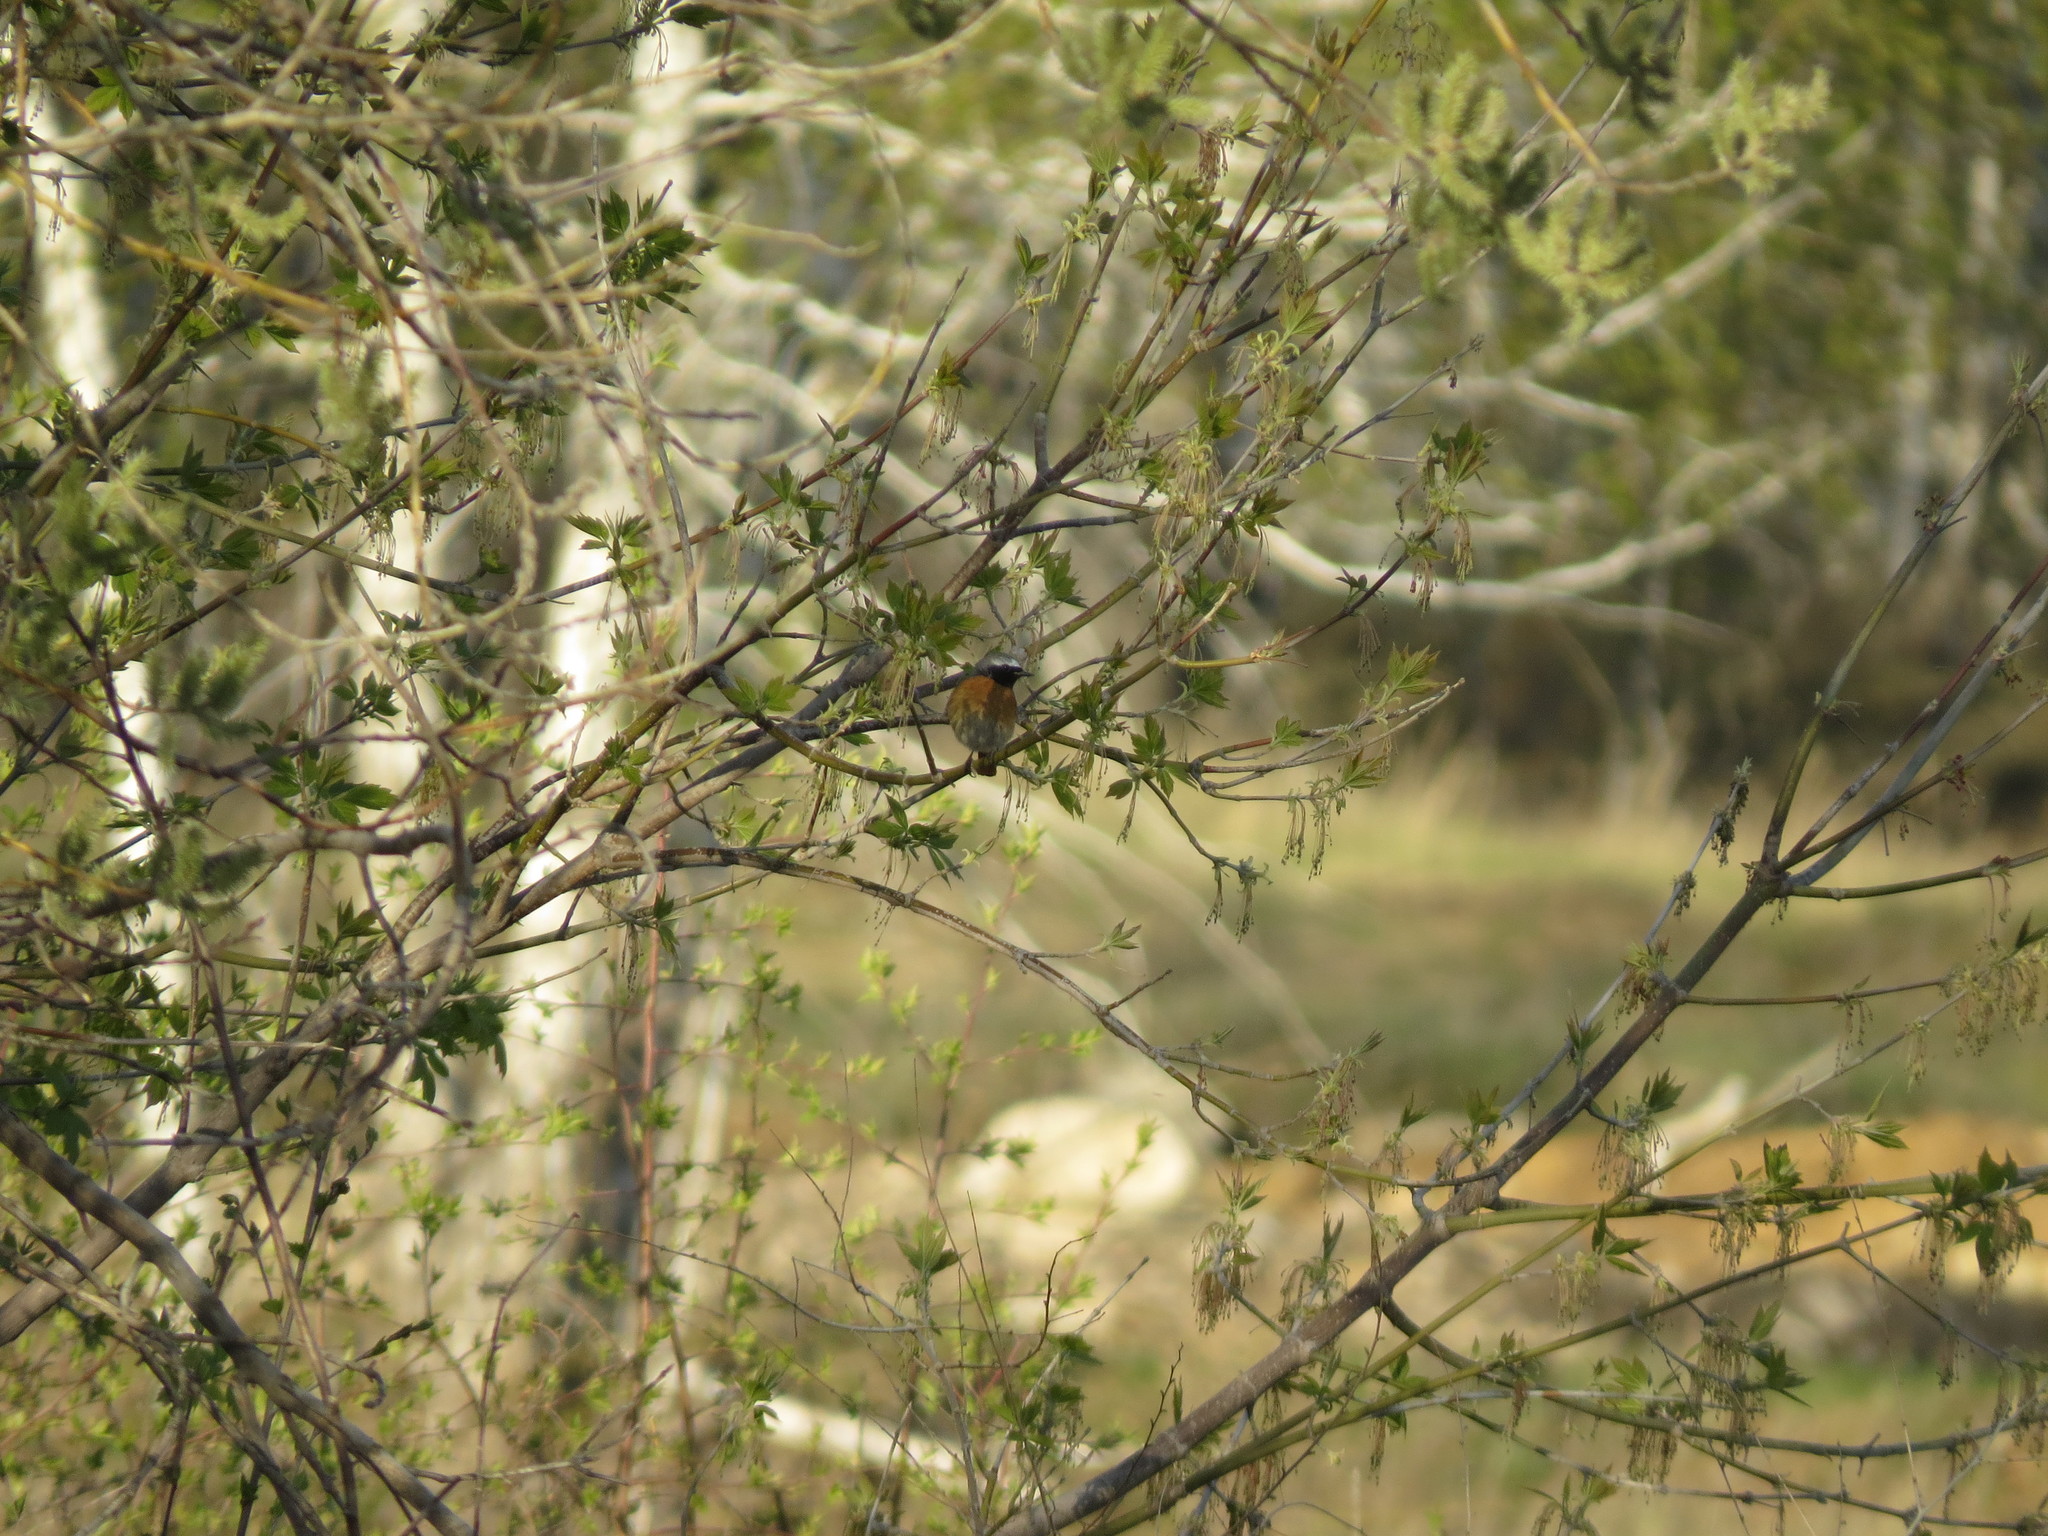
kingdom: Animalia
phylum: Chordata
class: Aves
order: Passeriformes
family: Muscicapidae
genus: Phoenicurus
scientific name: Phoenicurus phoenicurus
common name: Common redstart
